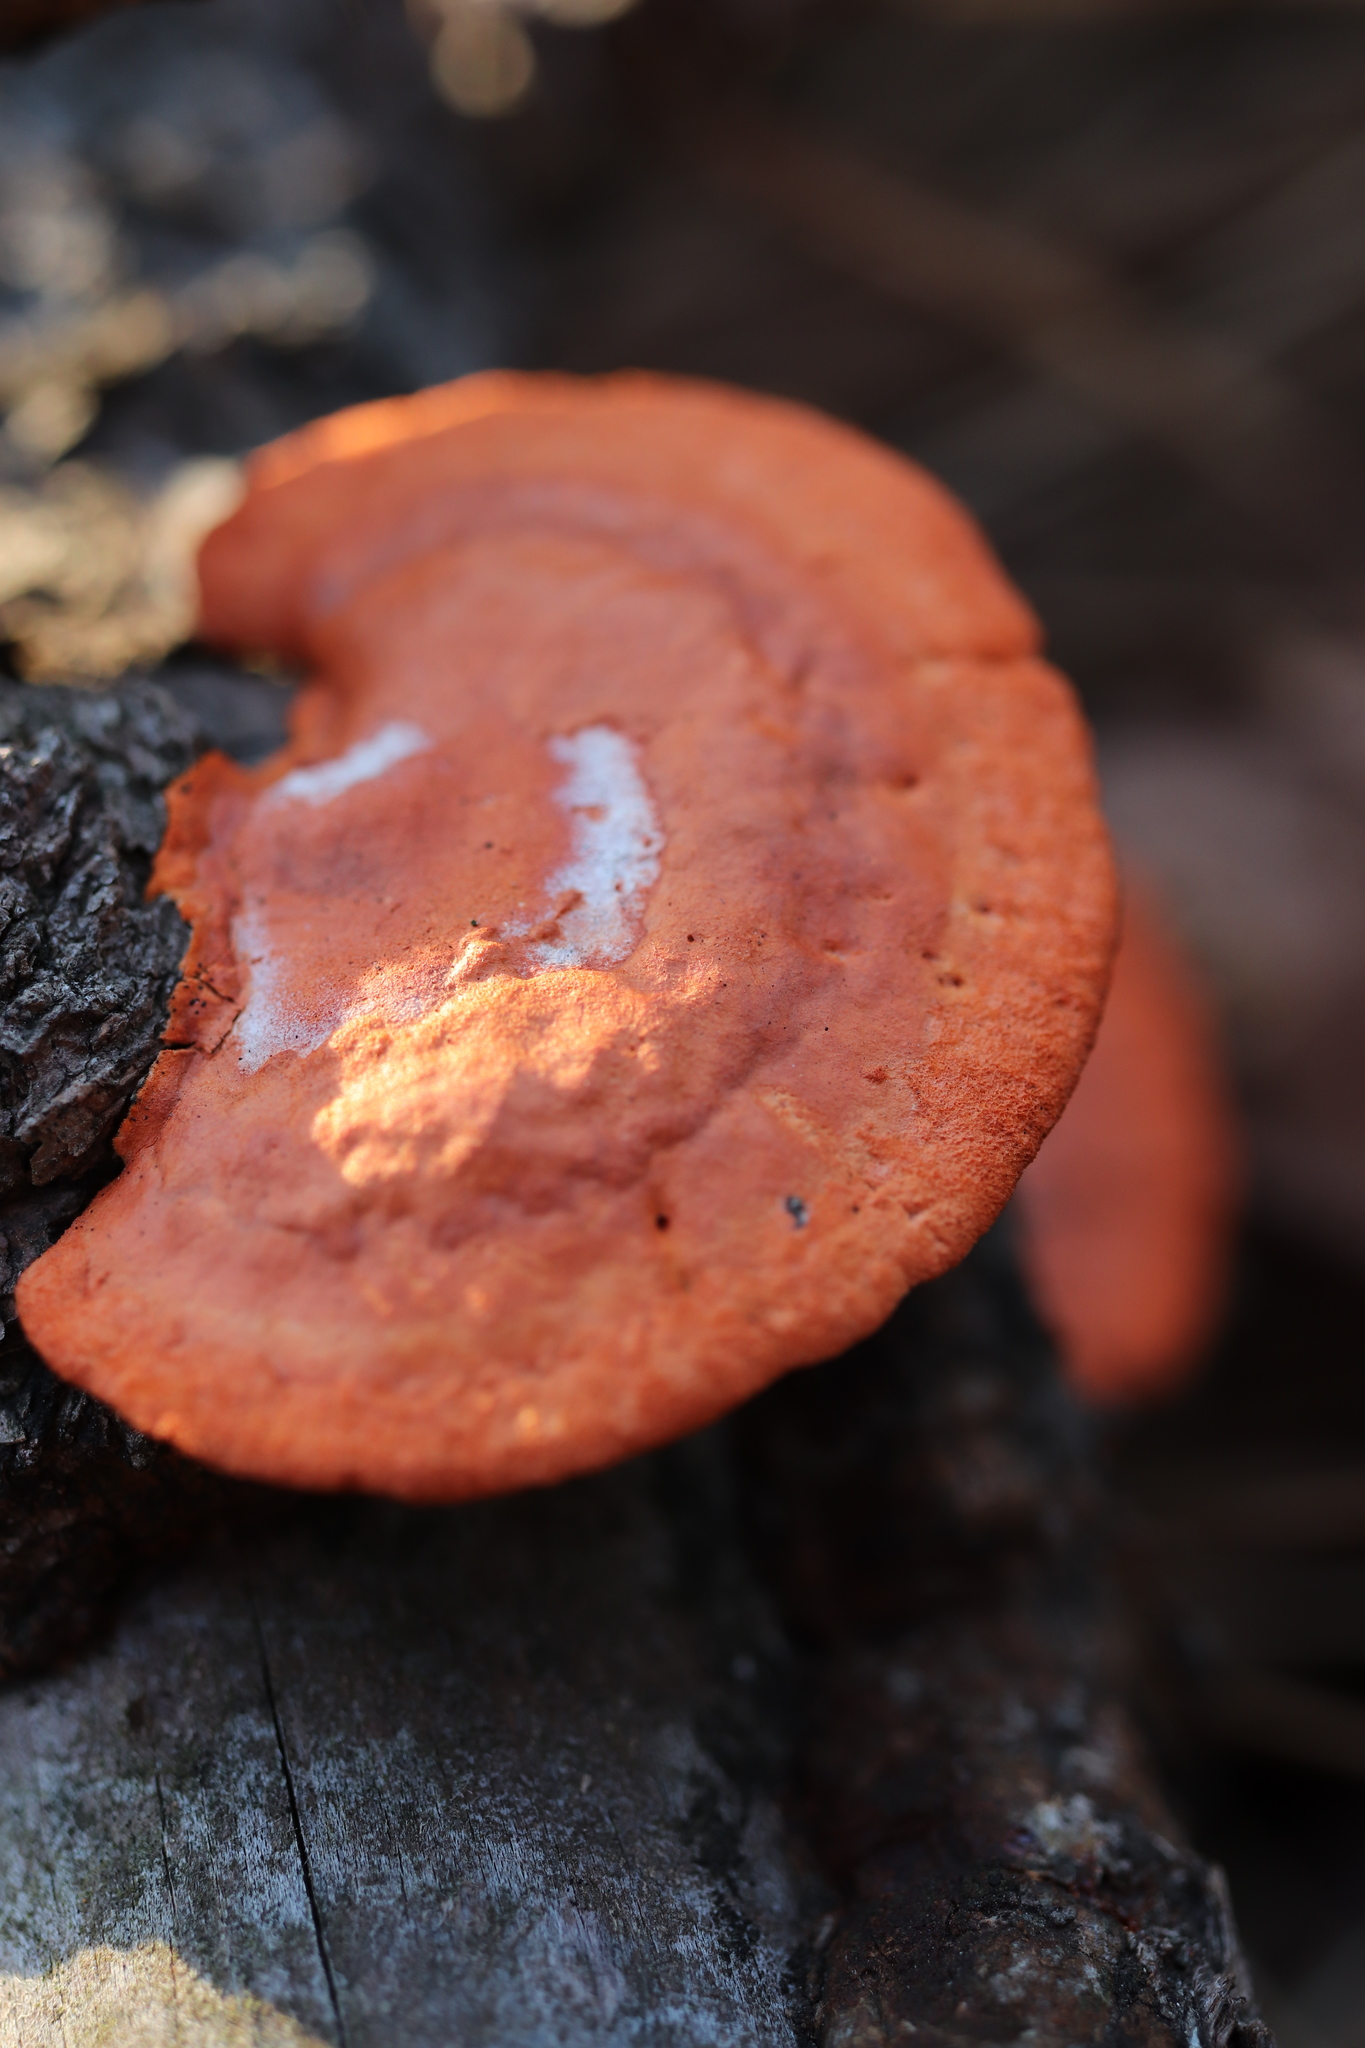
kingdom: Fungi
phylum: Basidiomycota
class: Agaricomycetes
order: Polyporales
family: Polyporaceae
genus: Trametes
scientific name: Trametes coccinea
